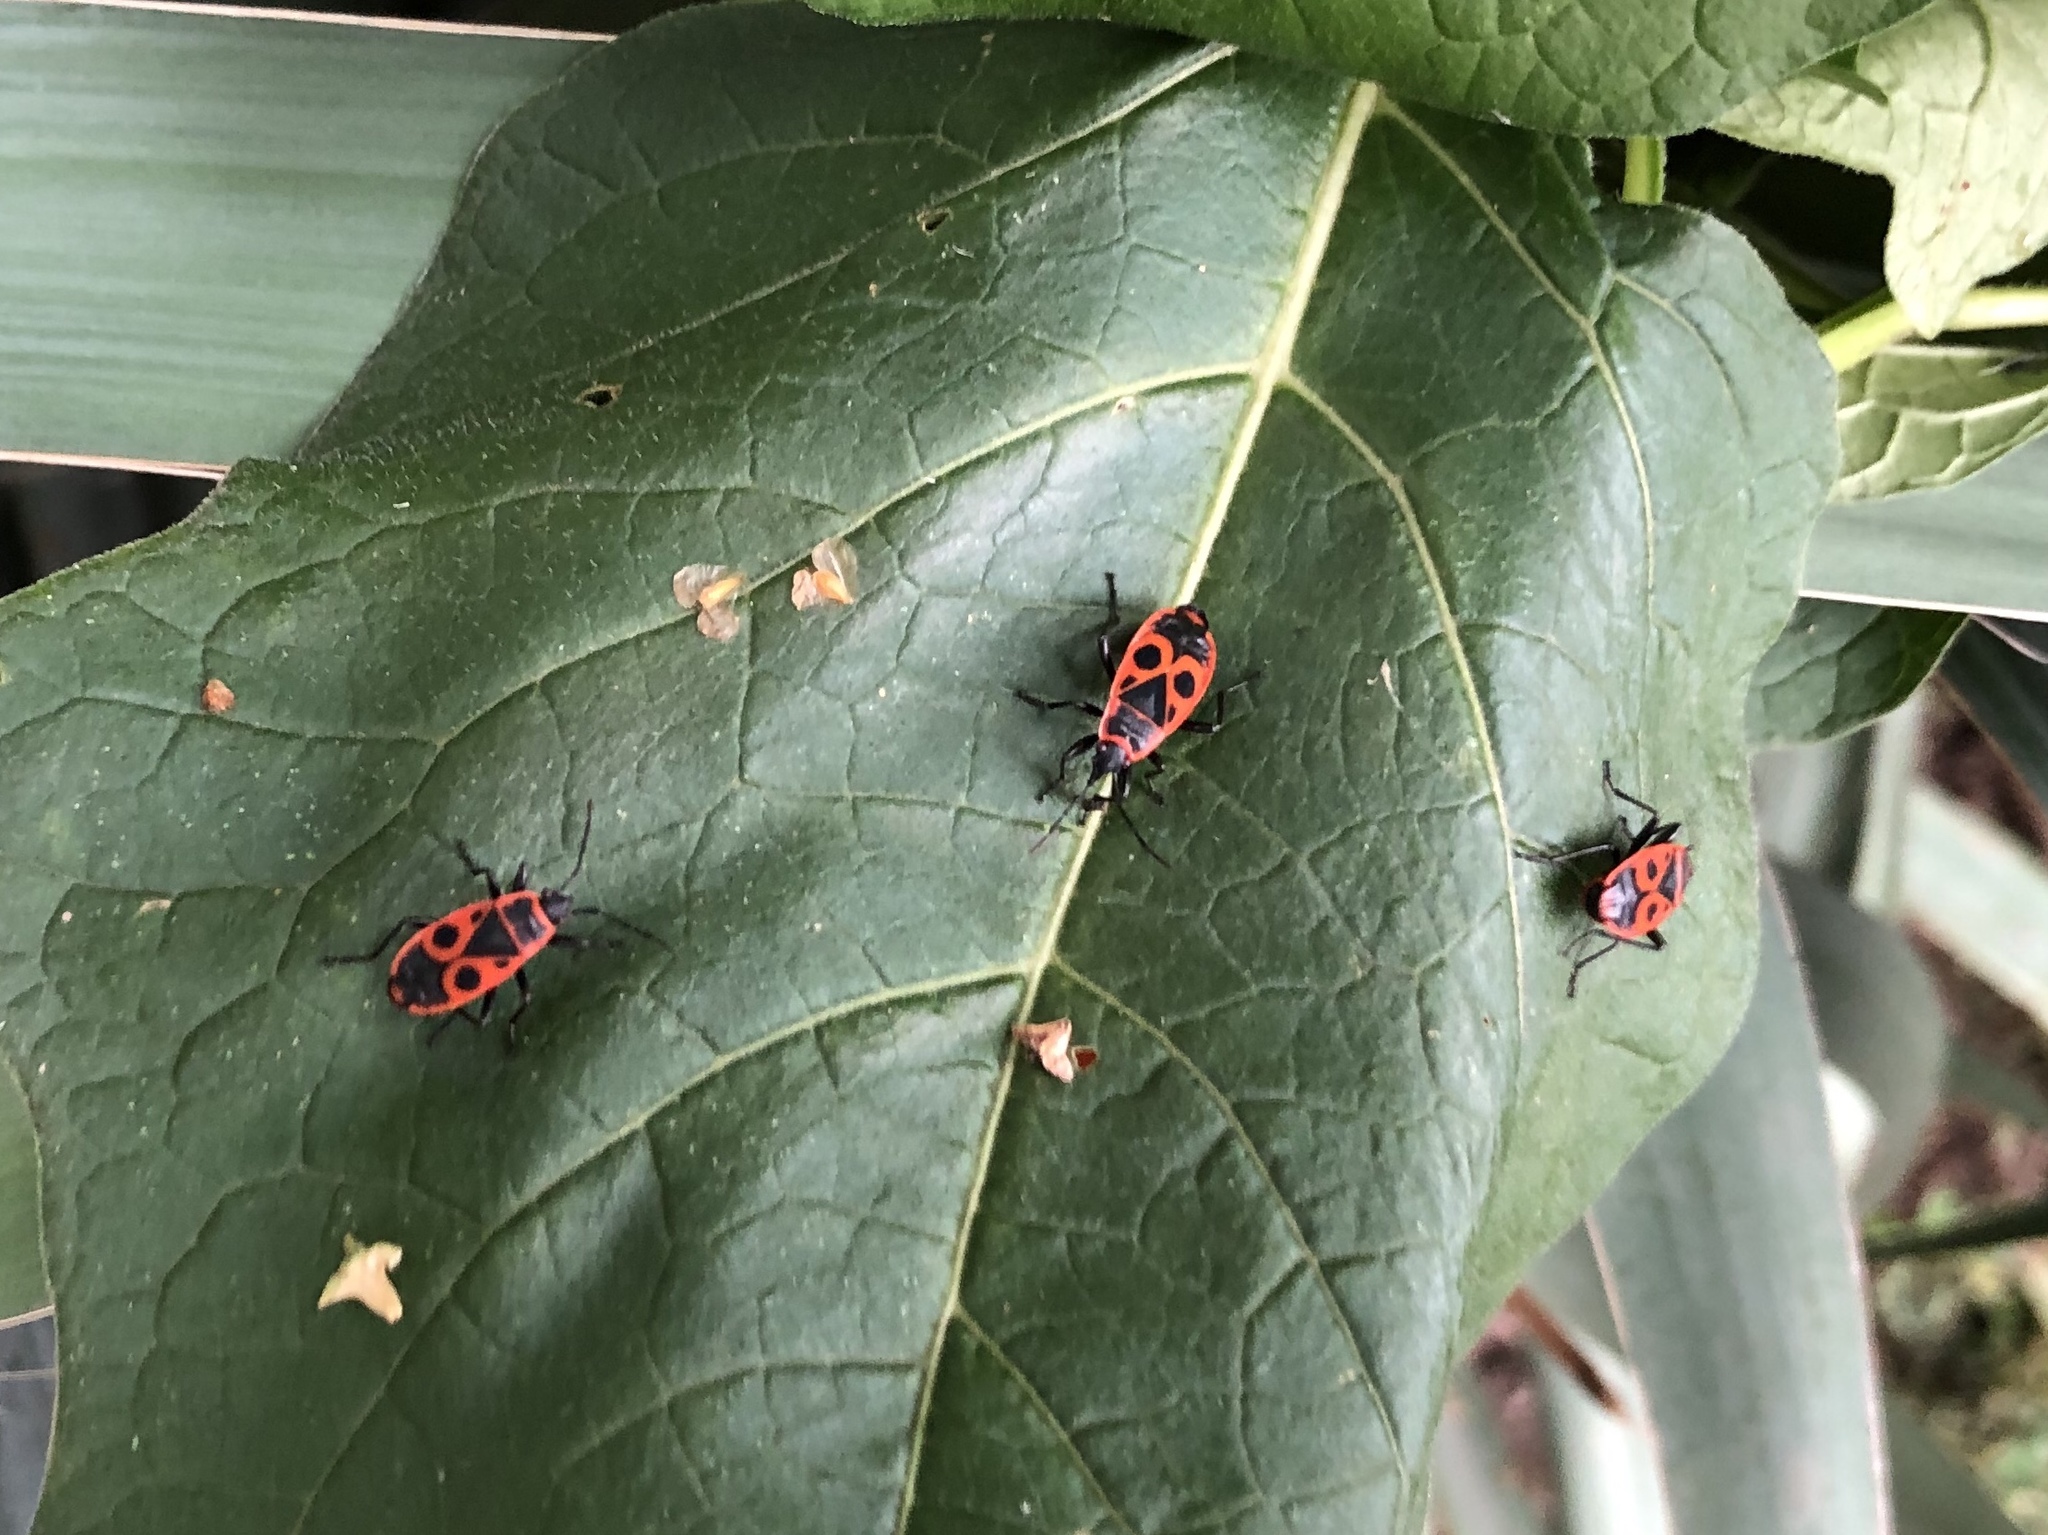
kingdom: Animalia
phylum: Arthropoda
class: Insecta
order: Hemiptera
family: Pyrrhocoridae
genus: Pyrrhocoris
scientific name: Pyrrhocoris apterus
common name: Firebug
